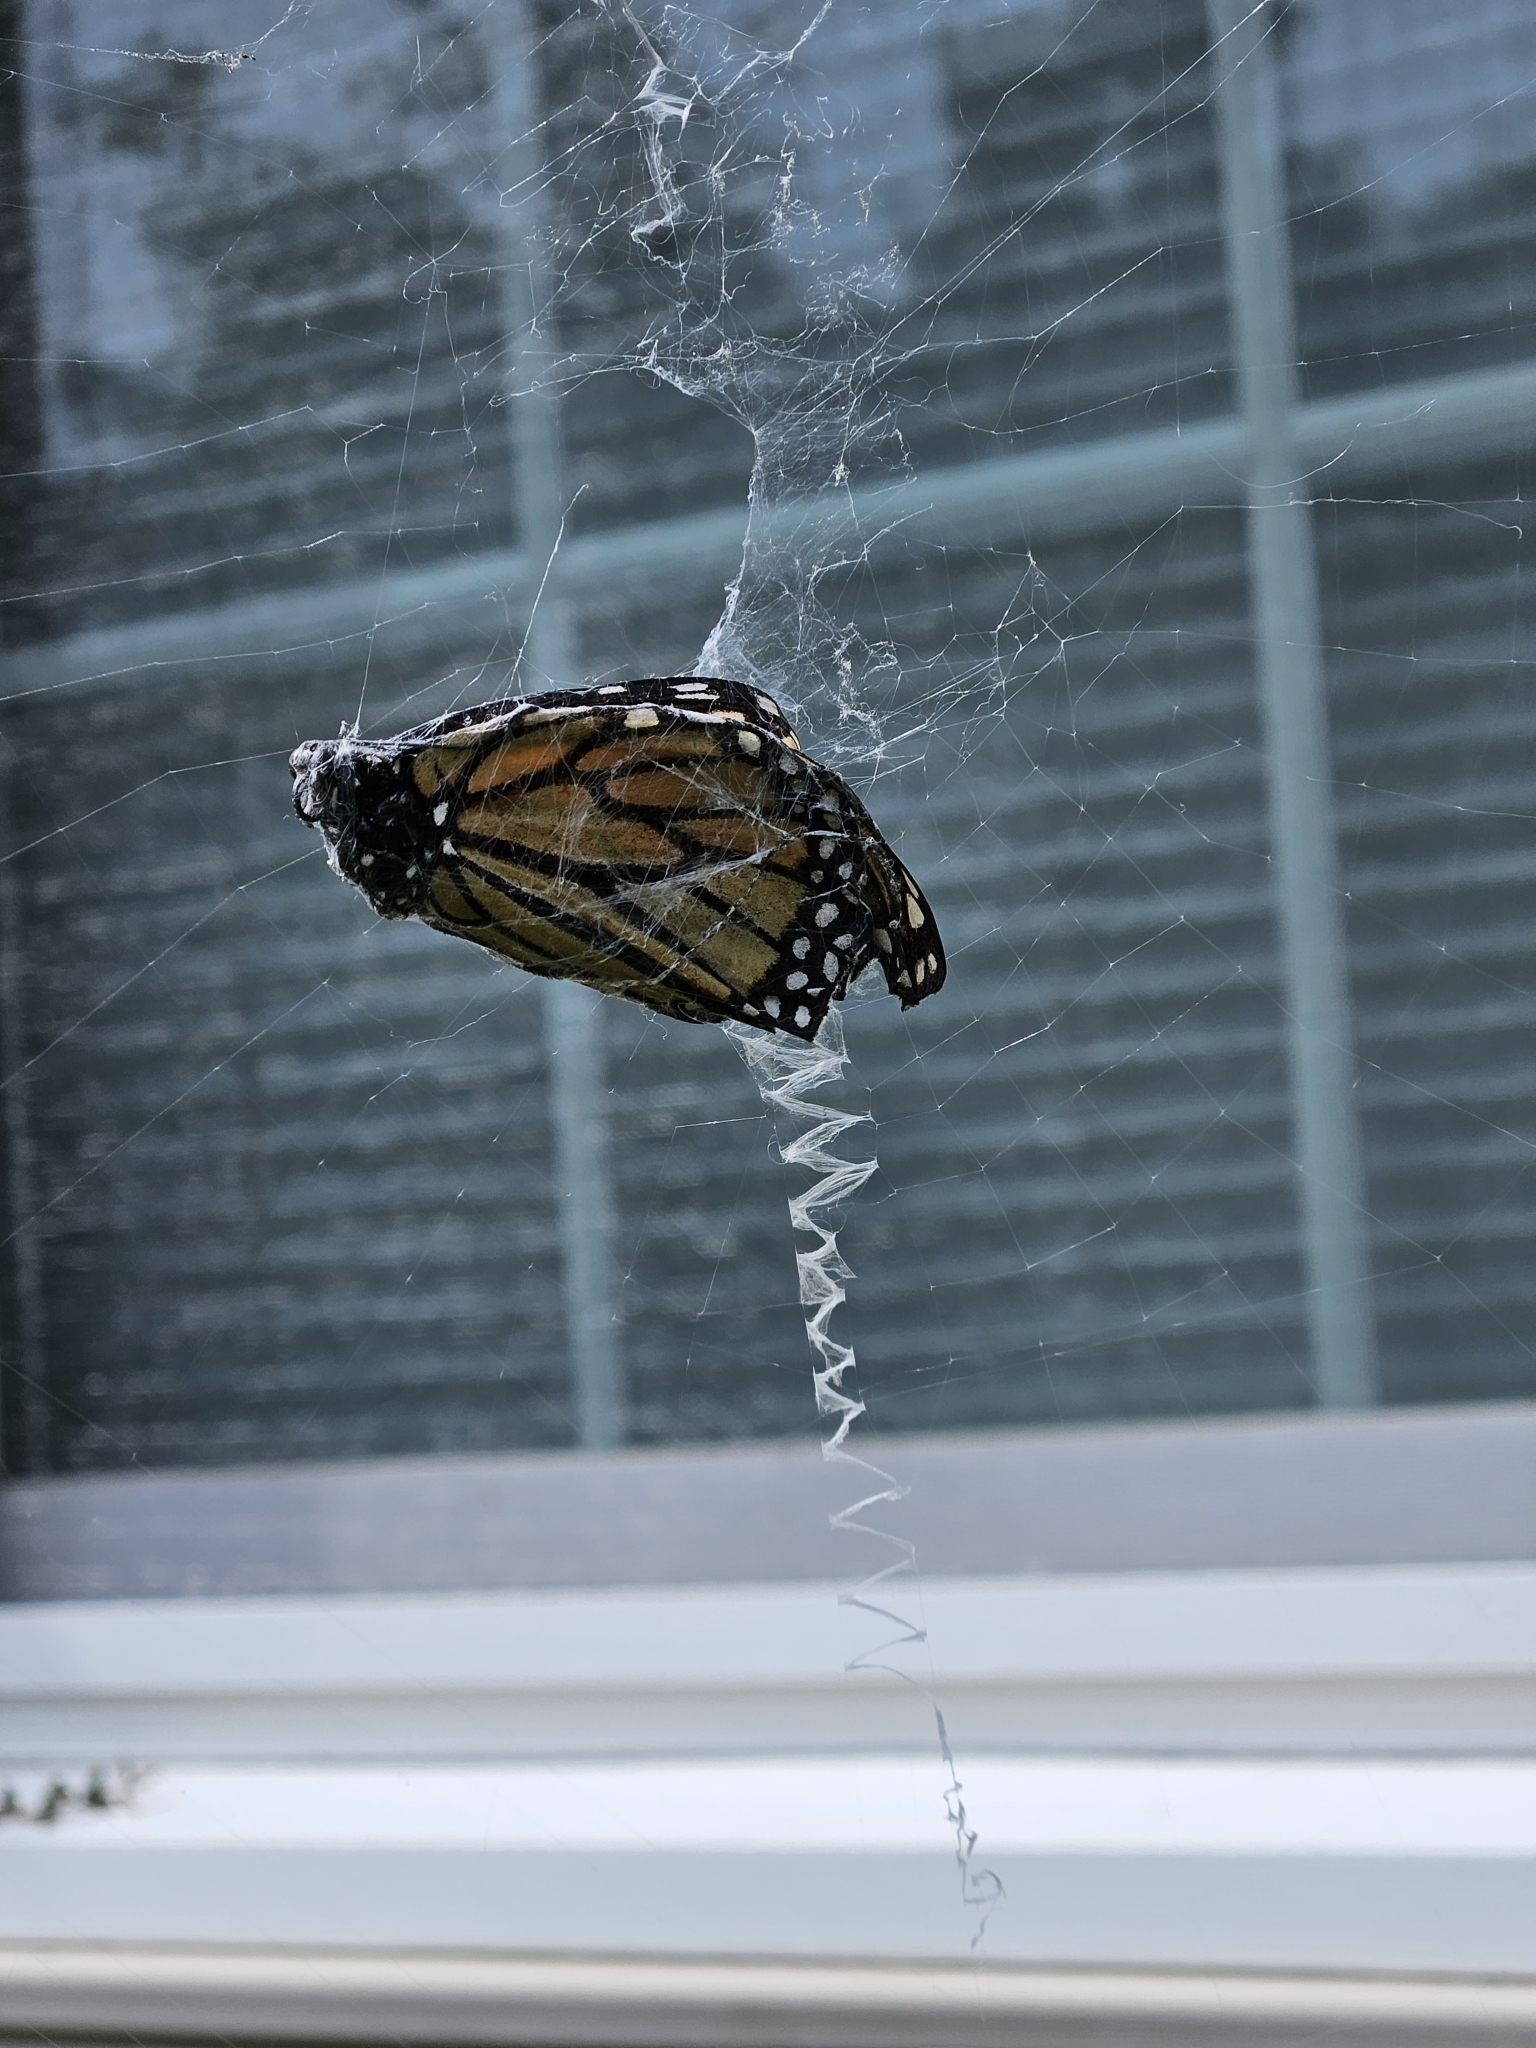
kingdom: Animalia
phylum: Arthropoda
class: Insecta
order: Lepidoptera
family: Nymphalidae
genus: Danaus
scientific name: Danaus plexippus
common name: Monarch
